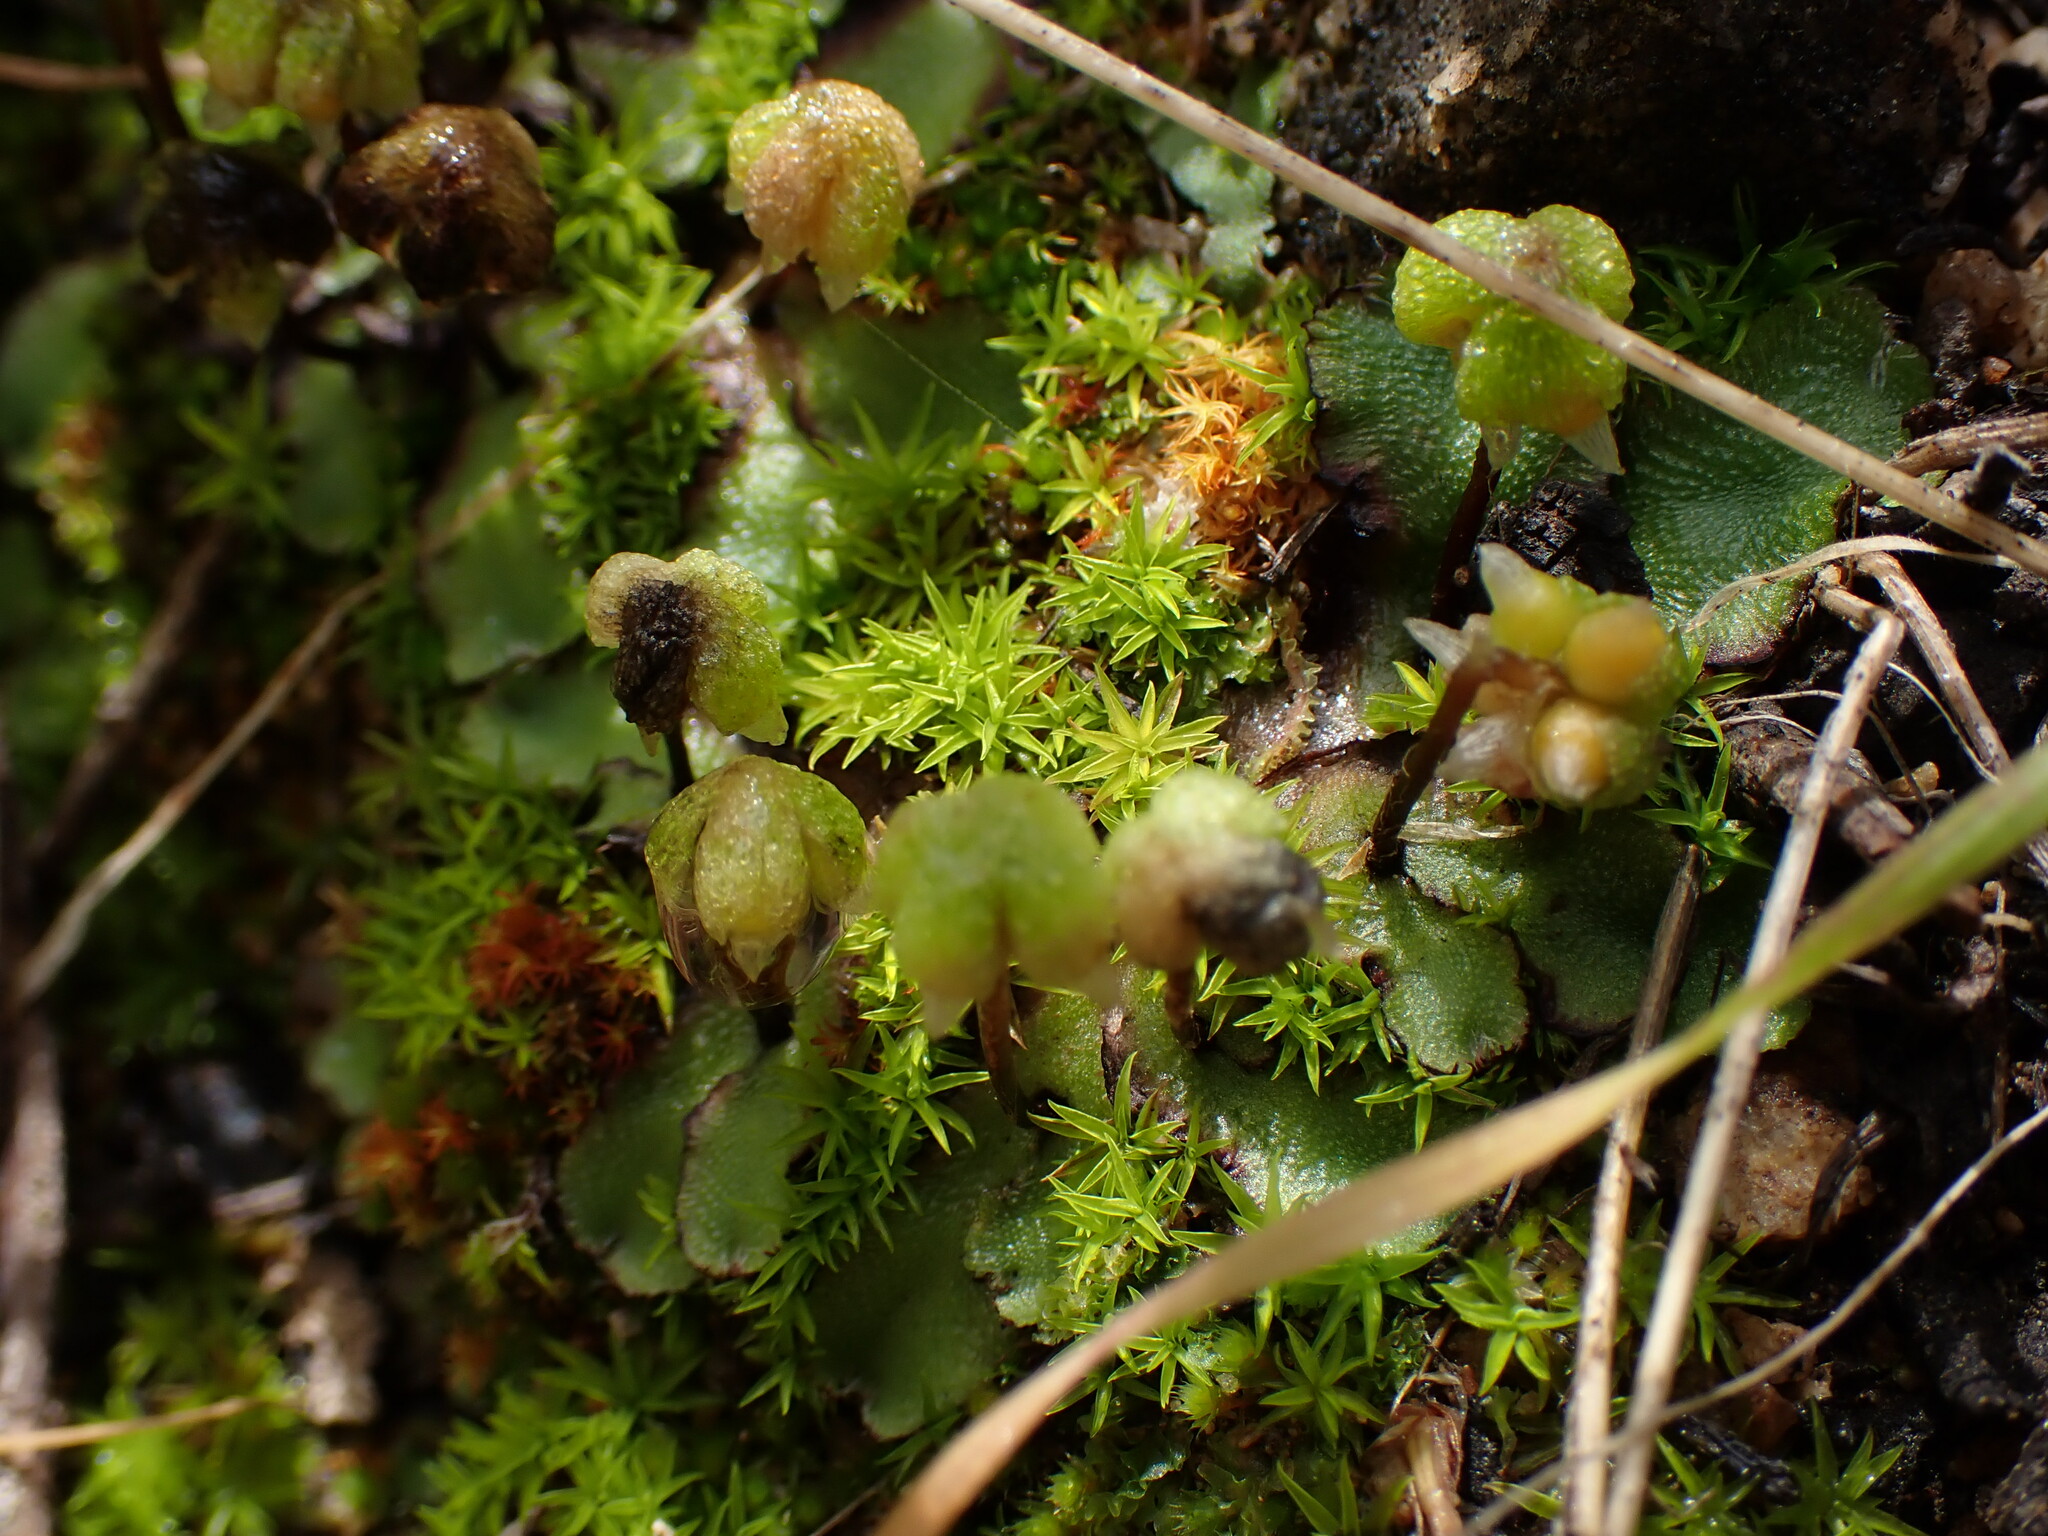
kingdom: Plantae
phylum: Marchantiophyta
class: Marchantiopsida
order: Marchantiales
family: Aytoniaceae
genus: Asterella
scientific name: Asterella californica
